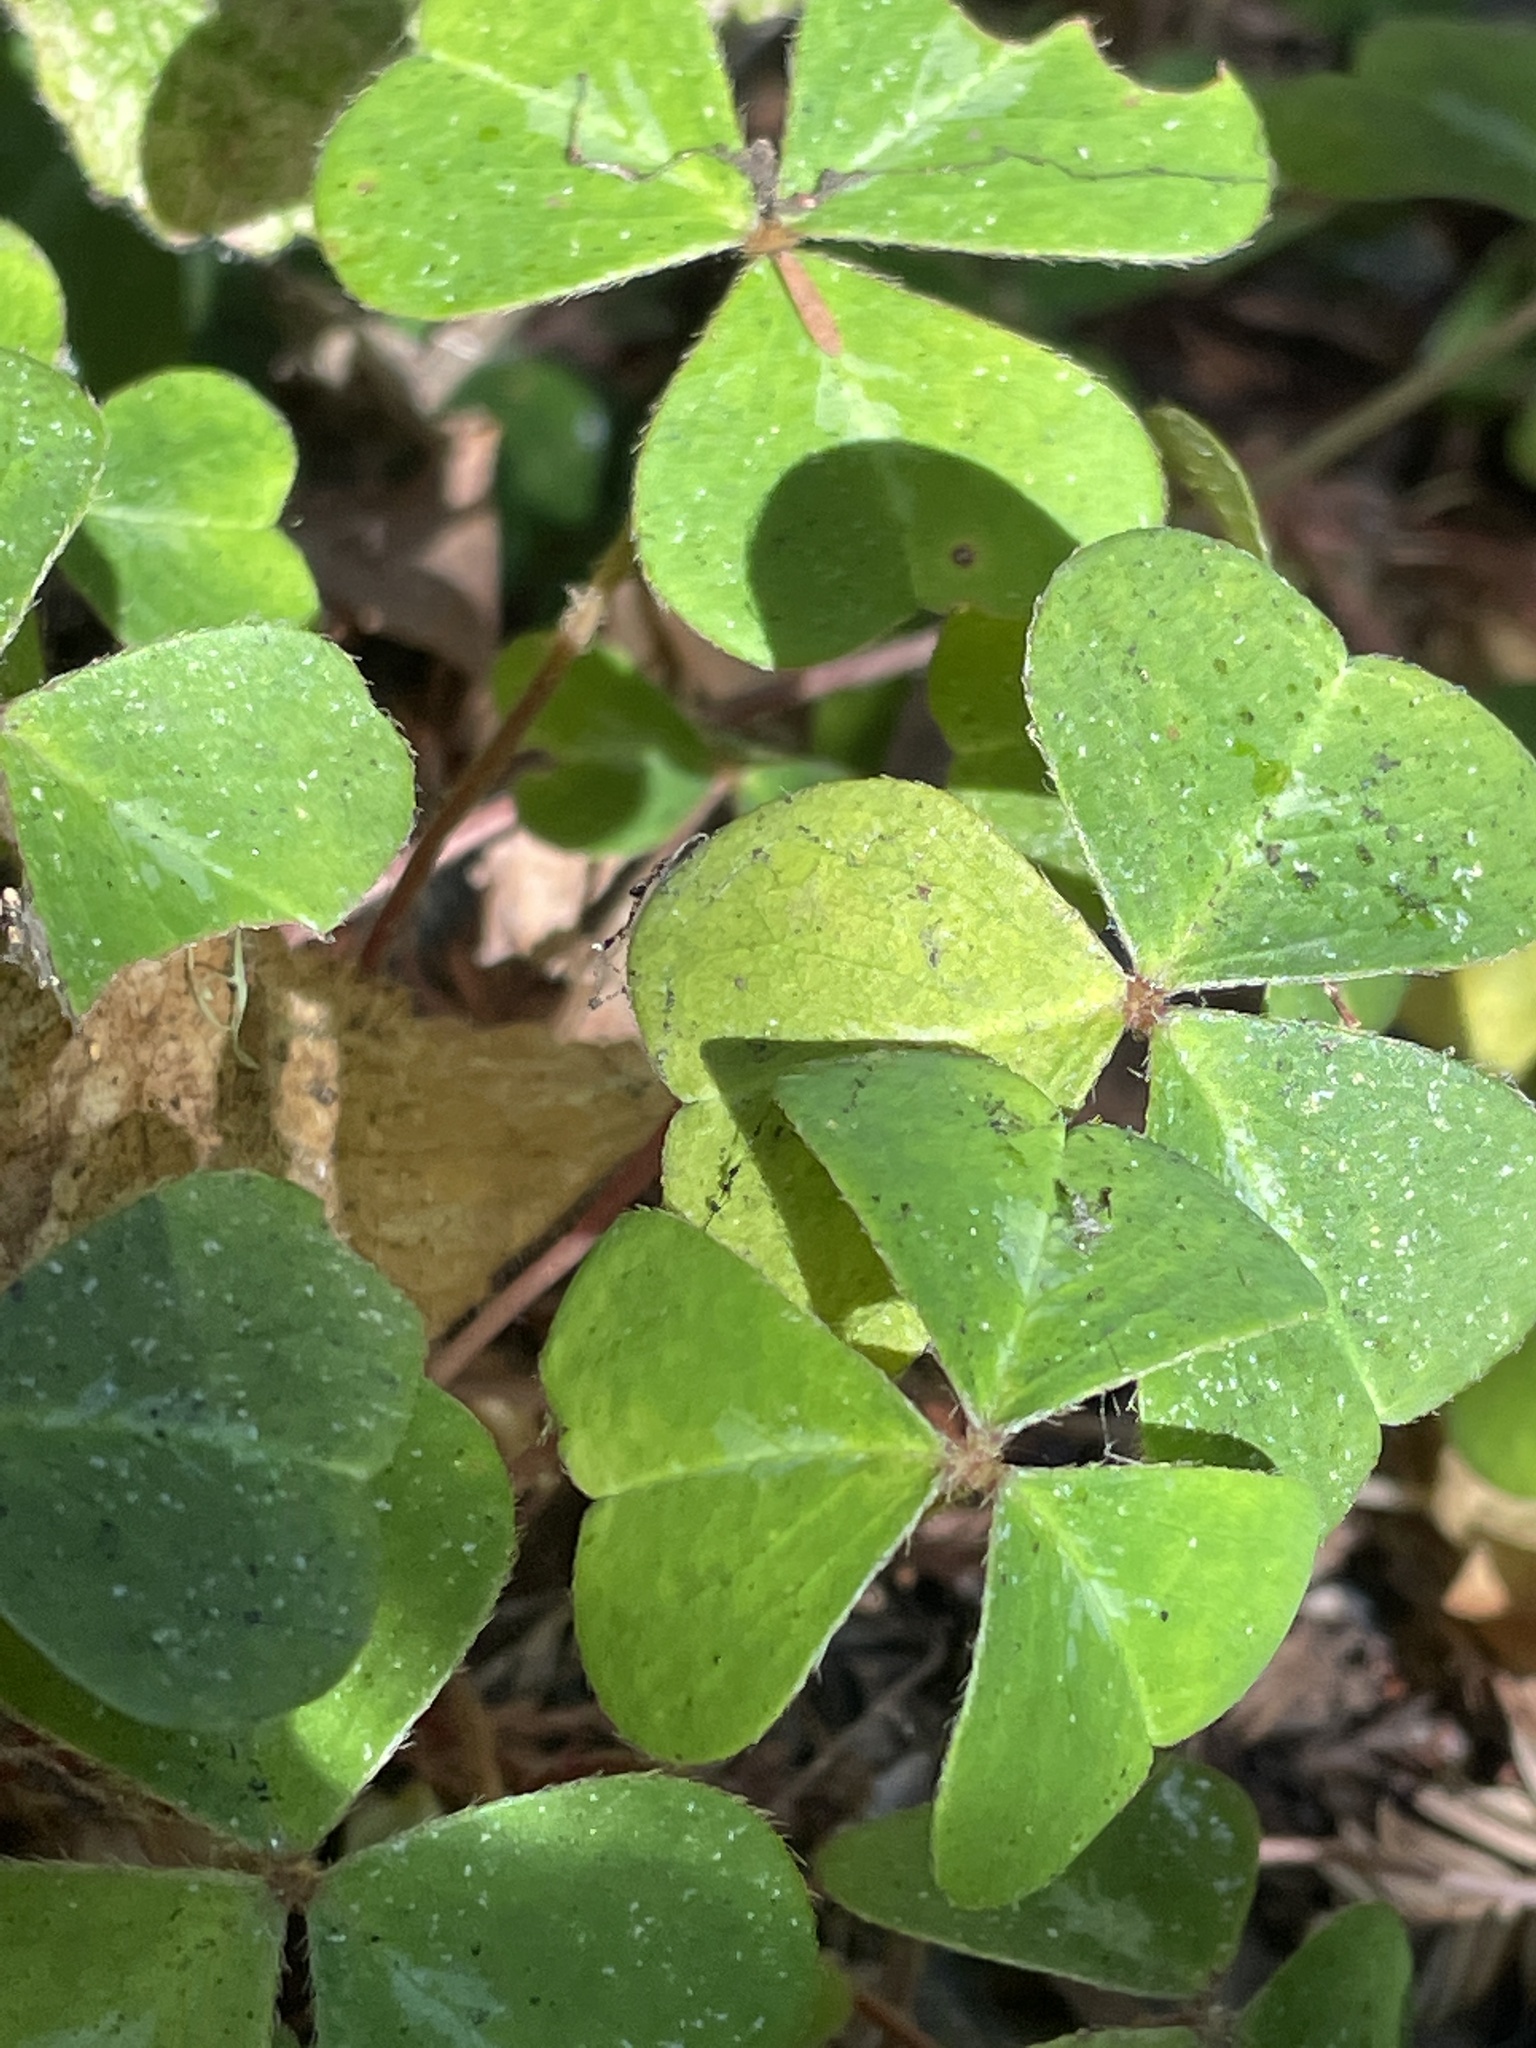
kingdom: Plantae
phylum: Tracheophyta
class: Magnoliopsida
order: Oxalidales
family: Oxalidaceae
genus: Oxalis
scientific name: Oxalis oregana
